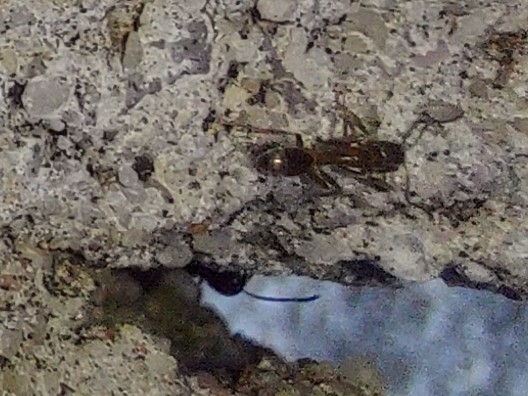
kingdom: Animalia
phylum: Arthropoda
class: Insecta
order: Hymenoptera
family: Formicidae
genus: Linepithema
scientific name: Linepithema humile
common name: Argentine ant
